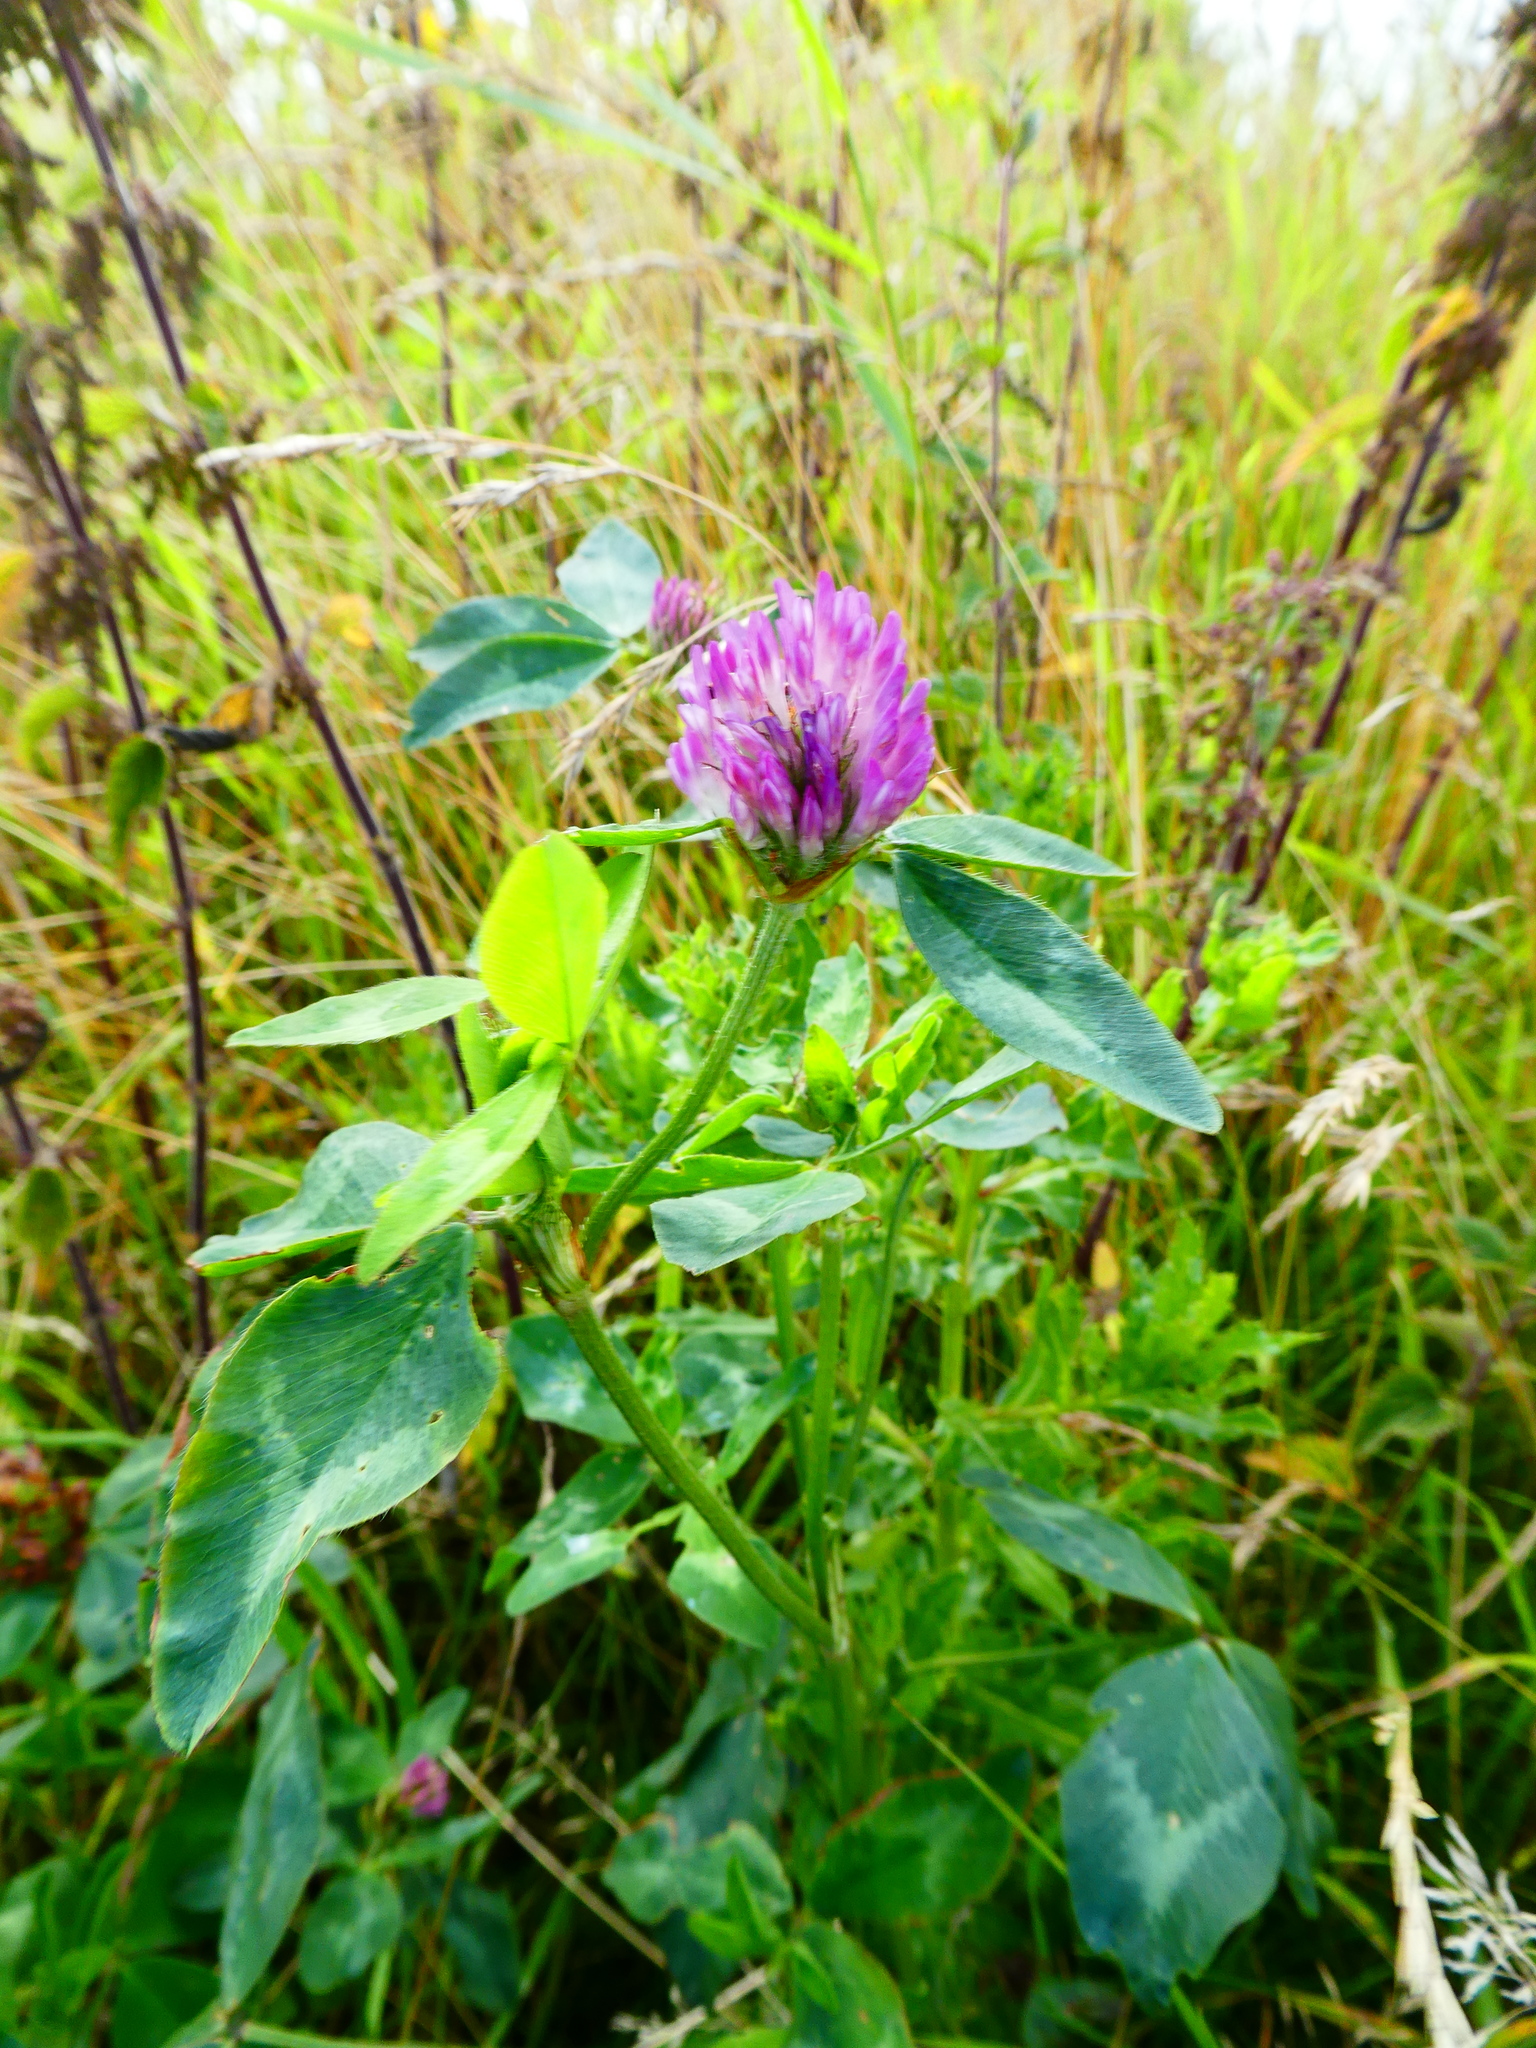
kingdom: Plantae
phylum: Tracheophyta
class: Magnoliopsida
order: Fabales
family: Fabaceae
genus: Trifolium
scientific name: Trifolium pratense
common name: Red clover
